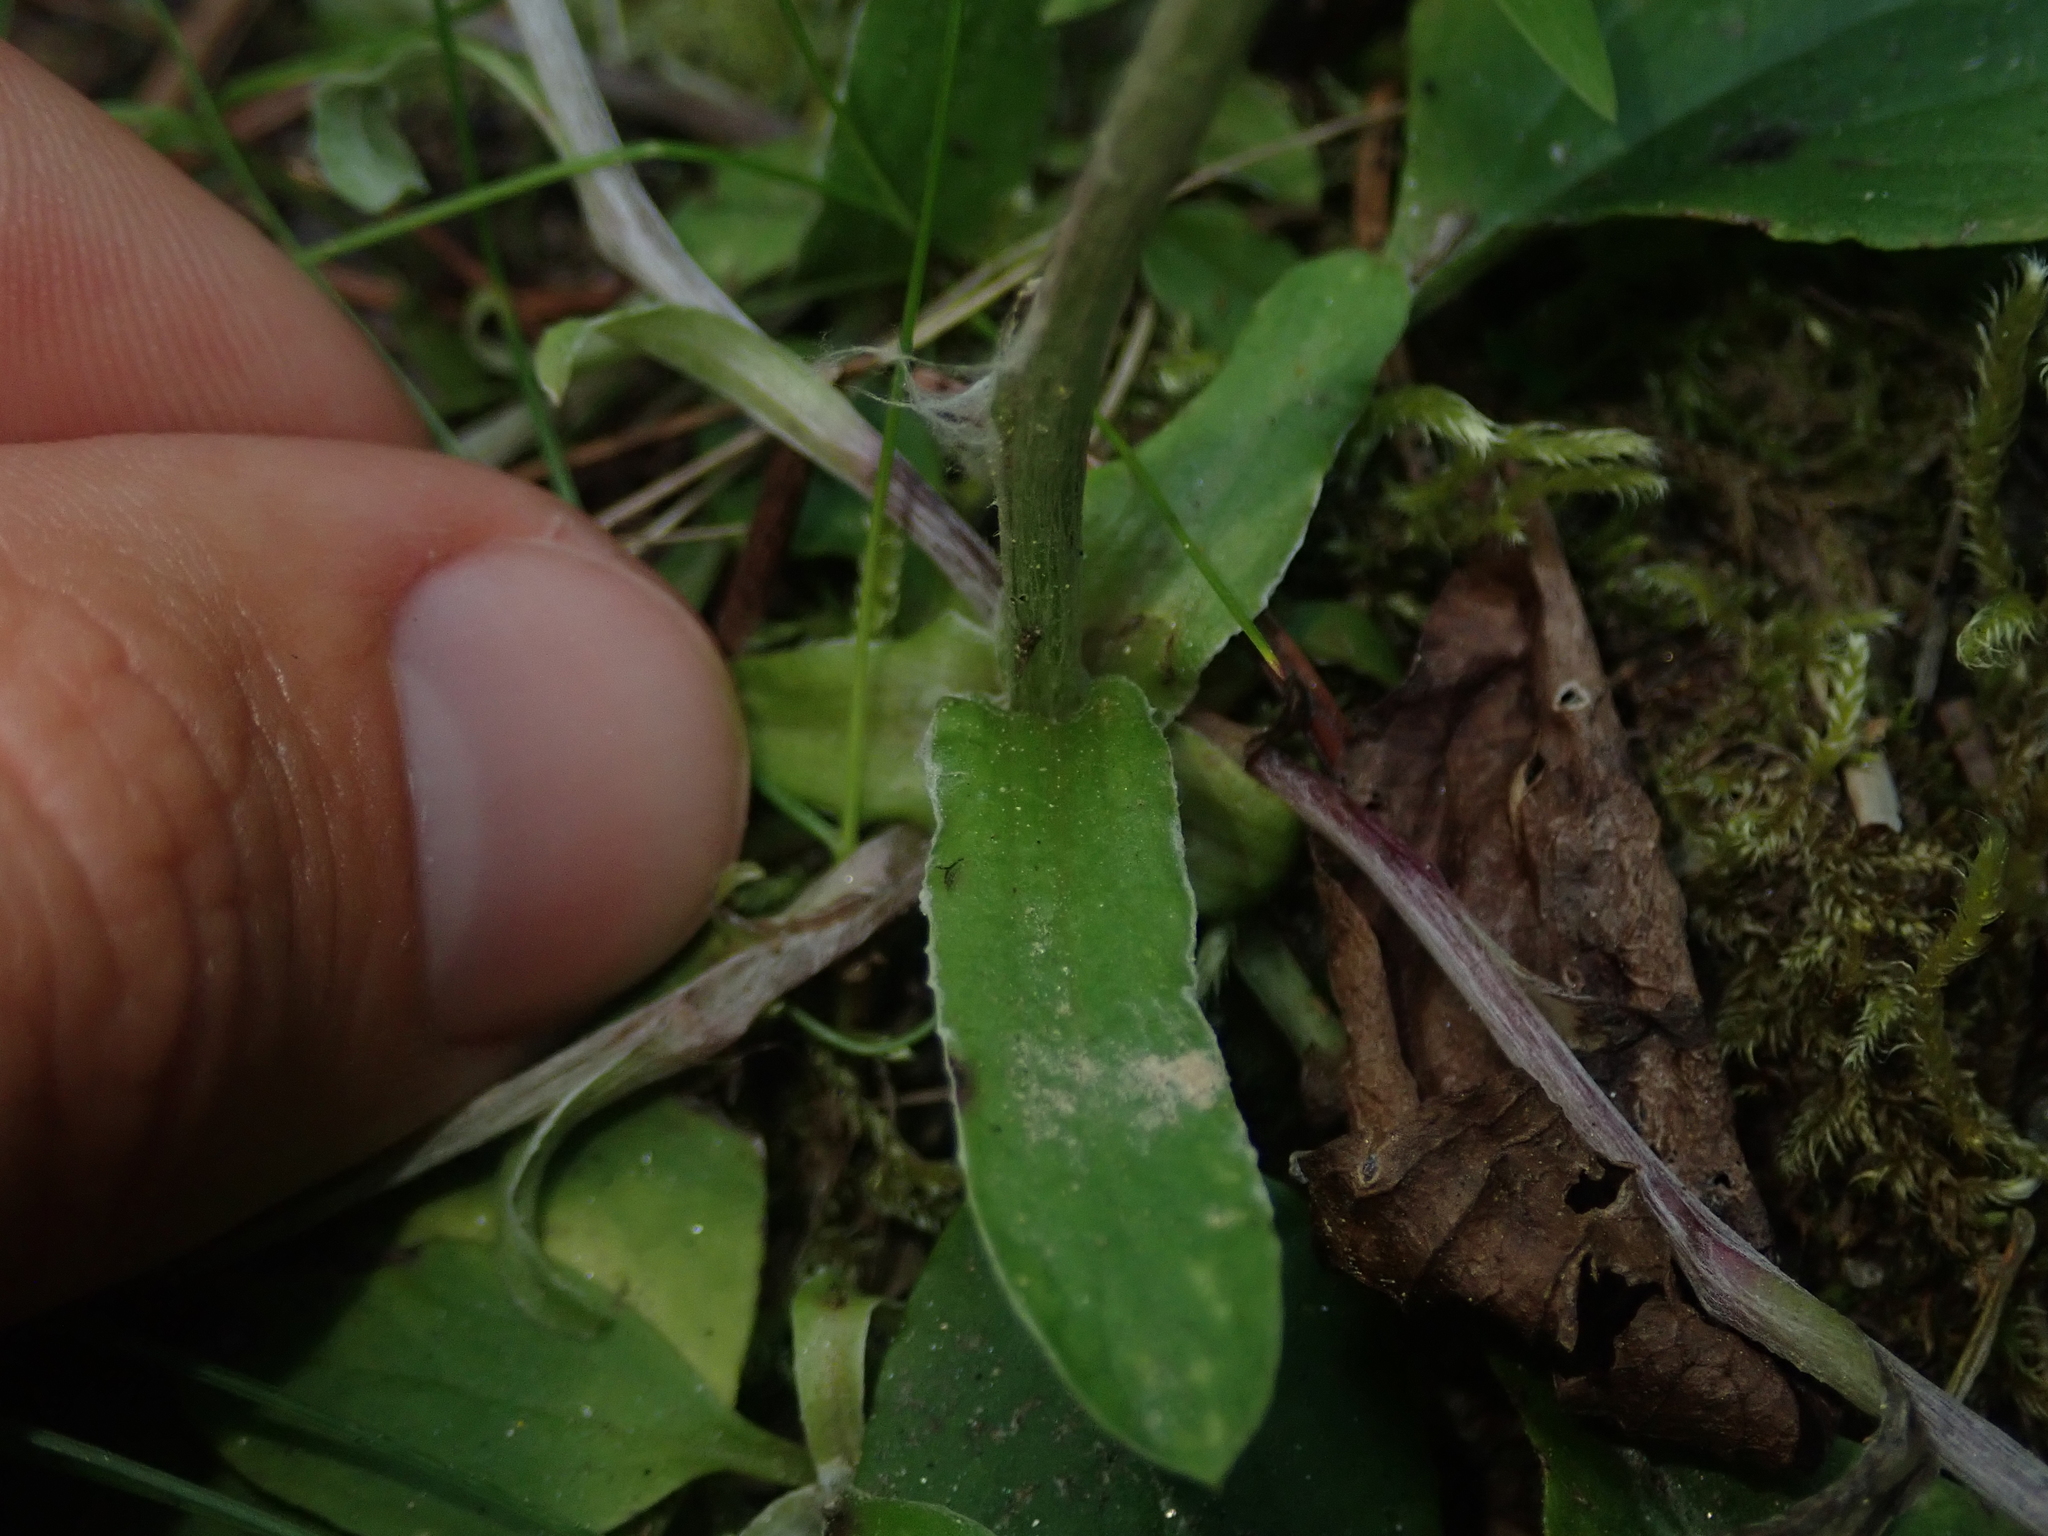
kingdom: Plantae
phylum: Tracheophyta
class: Magnoliopsida
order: Asterales
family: Asteraceae
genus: Antennaria
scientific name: Antennaria racemosa
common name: Racemose pussytoes
